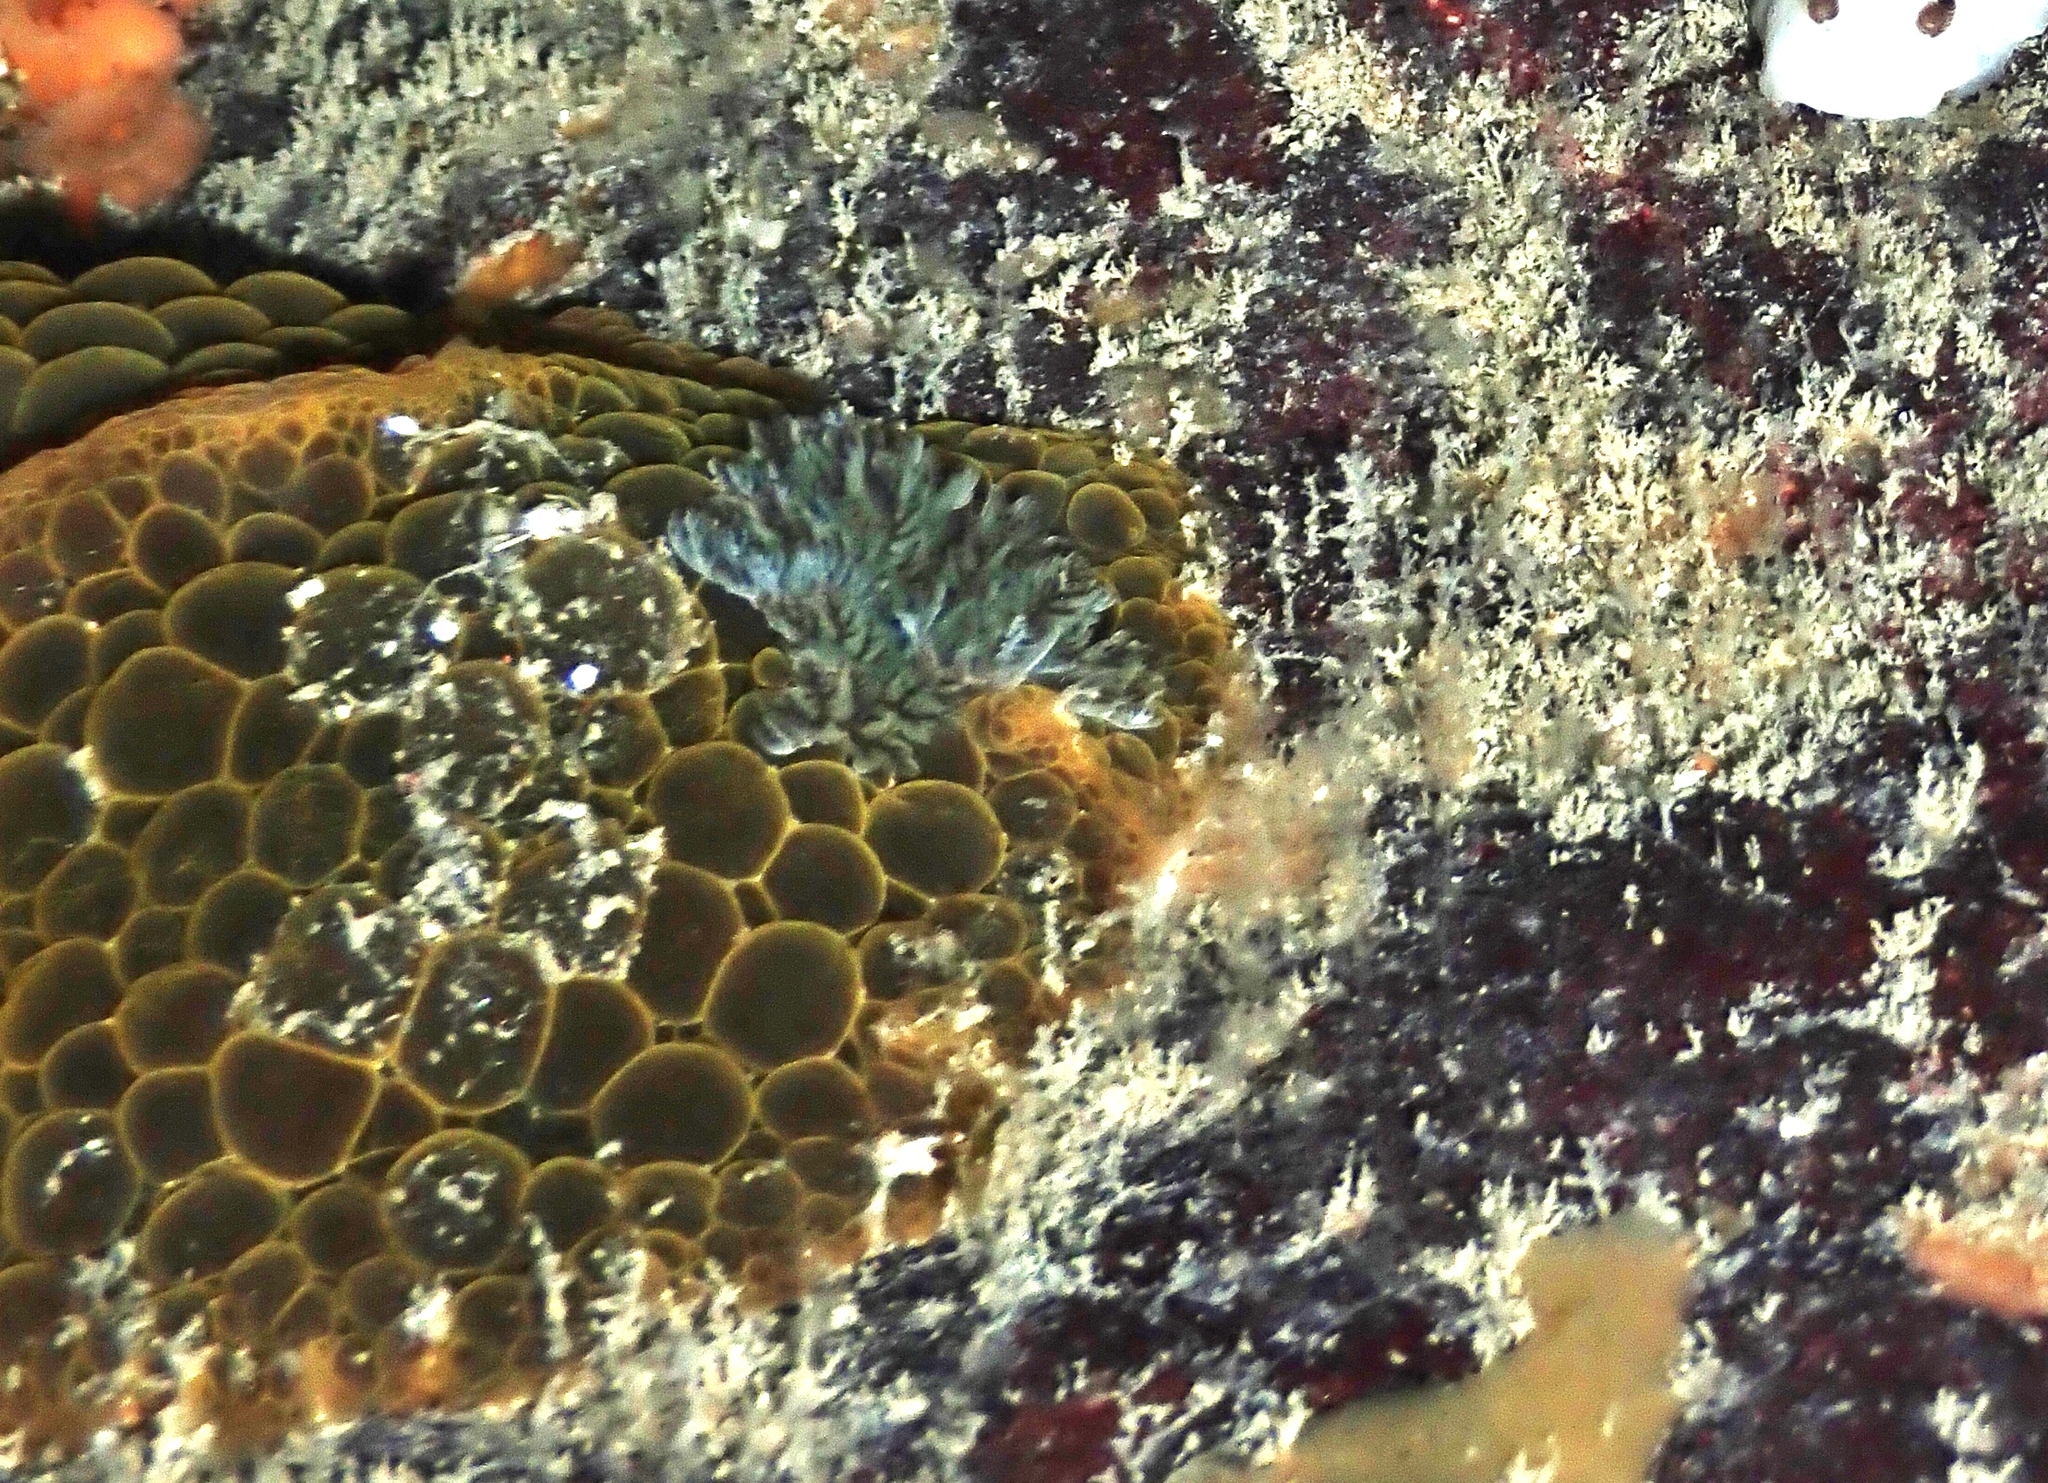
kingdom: Animalia
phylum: Mollusca
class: Gastropoda
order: Nudibranchia
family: Dorididae
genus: Doris
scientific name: Doris wellingtonensis
